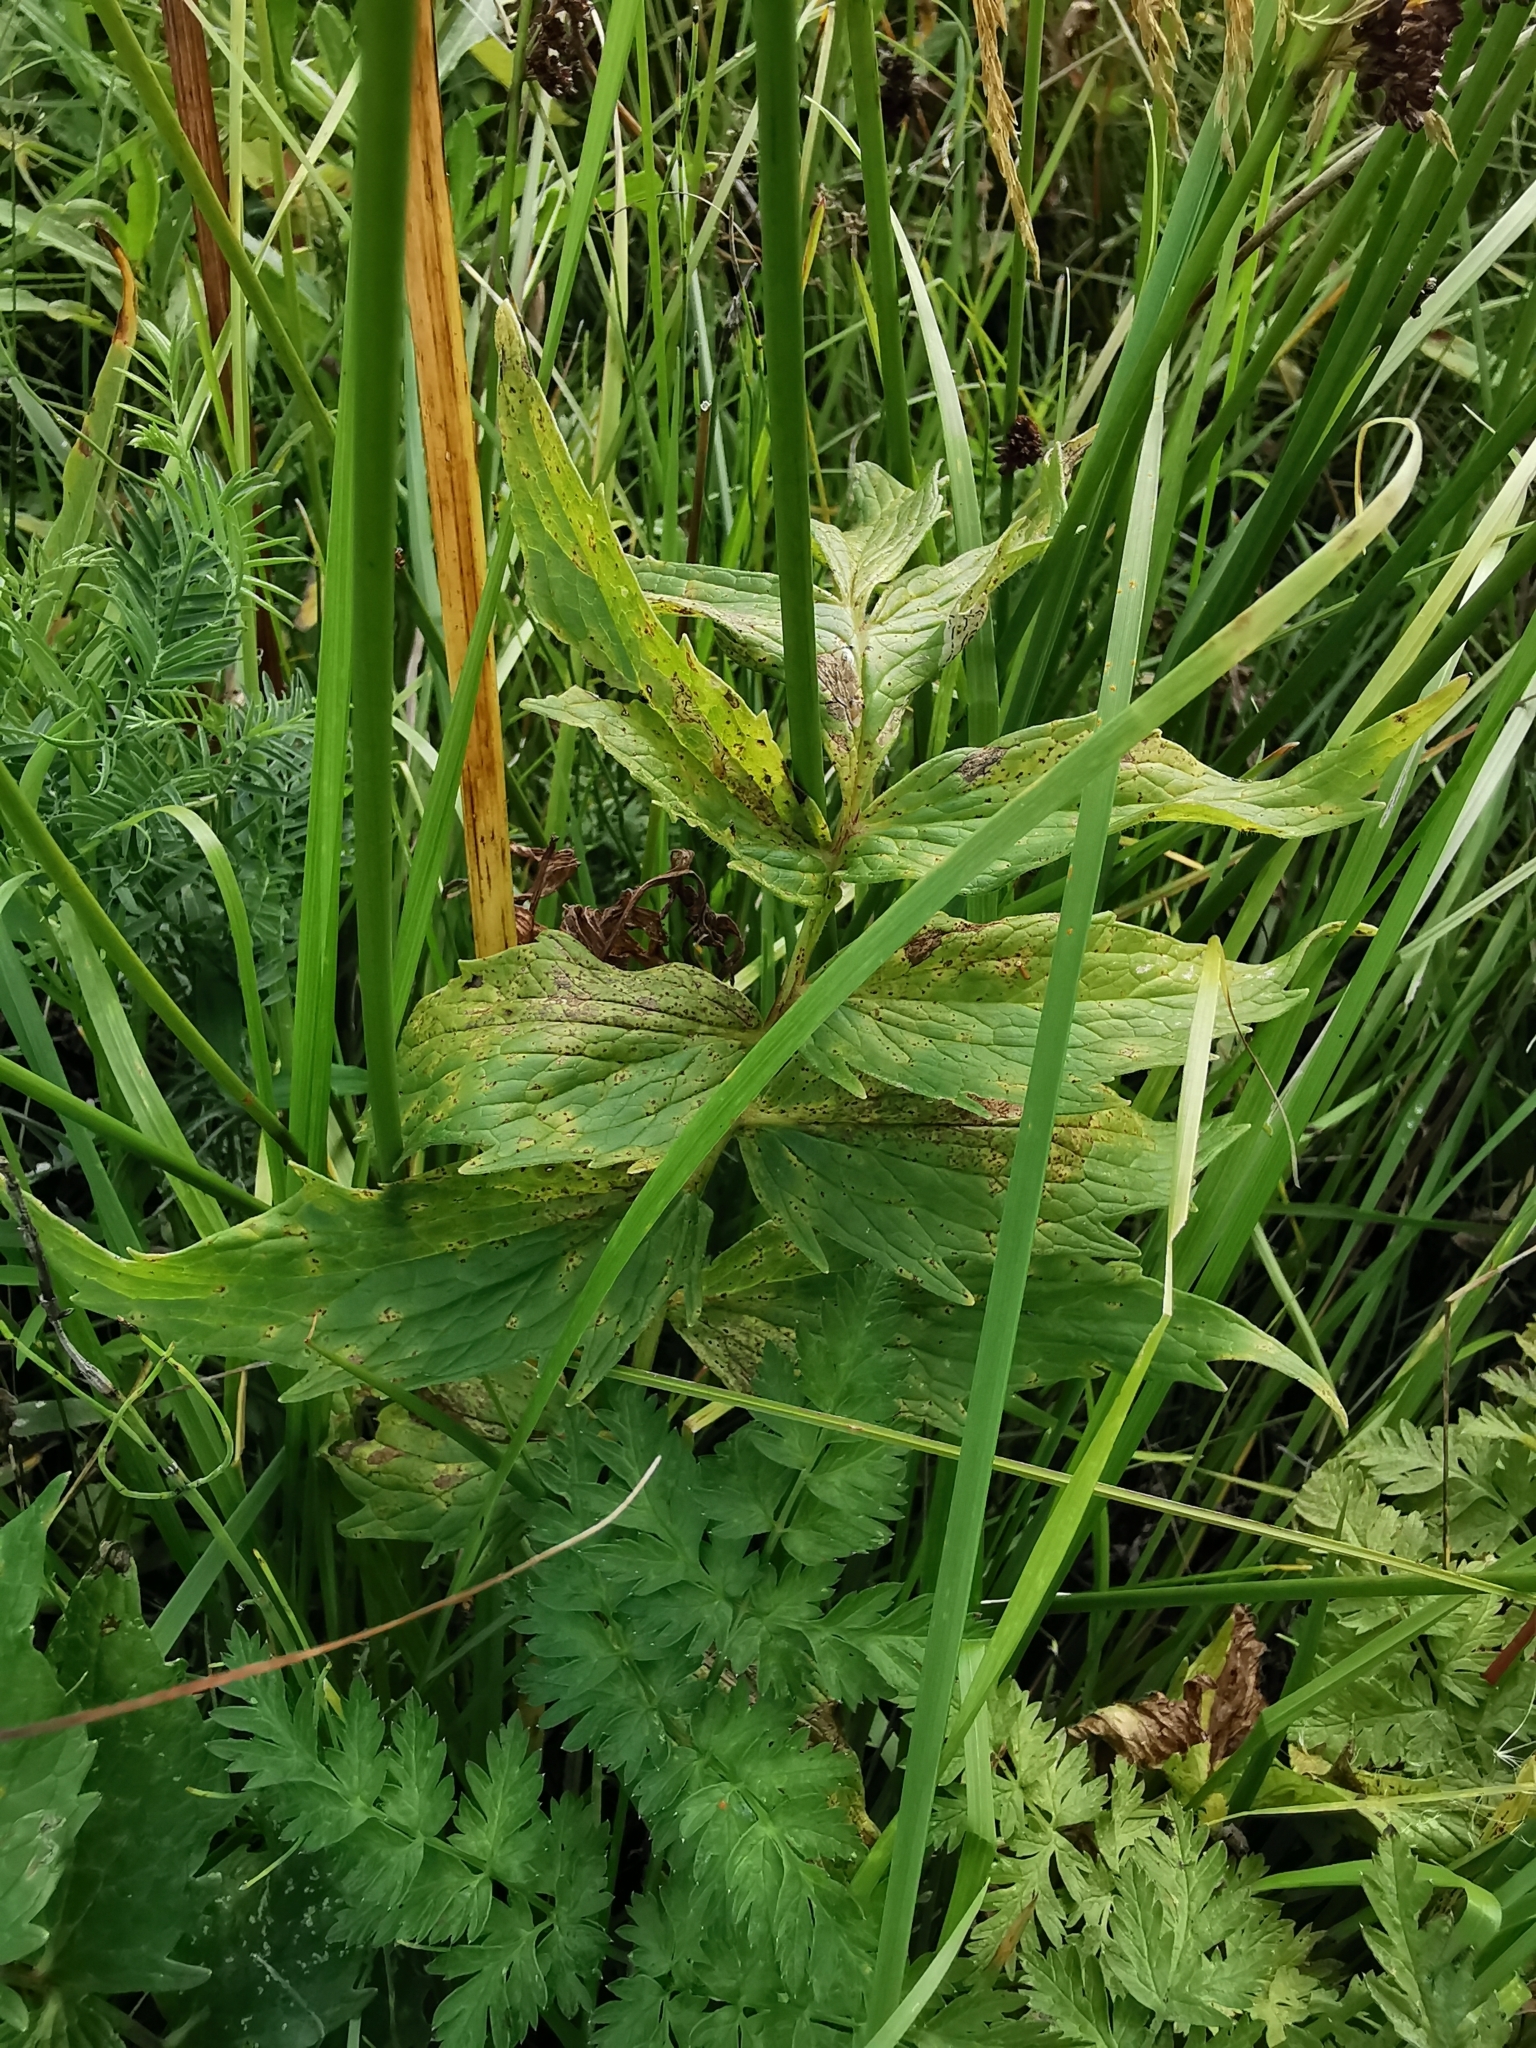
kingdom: Plantae
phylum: Tracheophyta
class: Magnoliopsida
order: Dipsacales
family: Caprifoliaceae
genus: Valeriana
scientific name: Valeriana officinalis
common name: Common valerian
